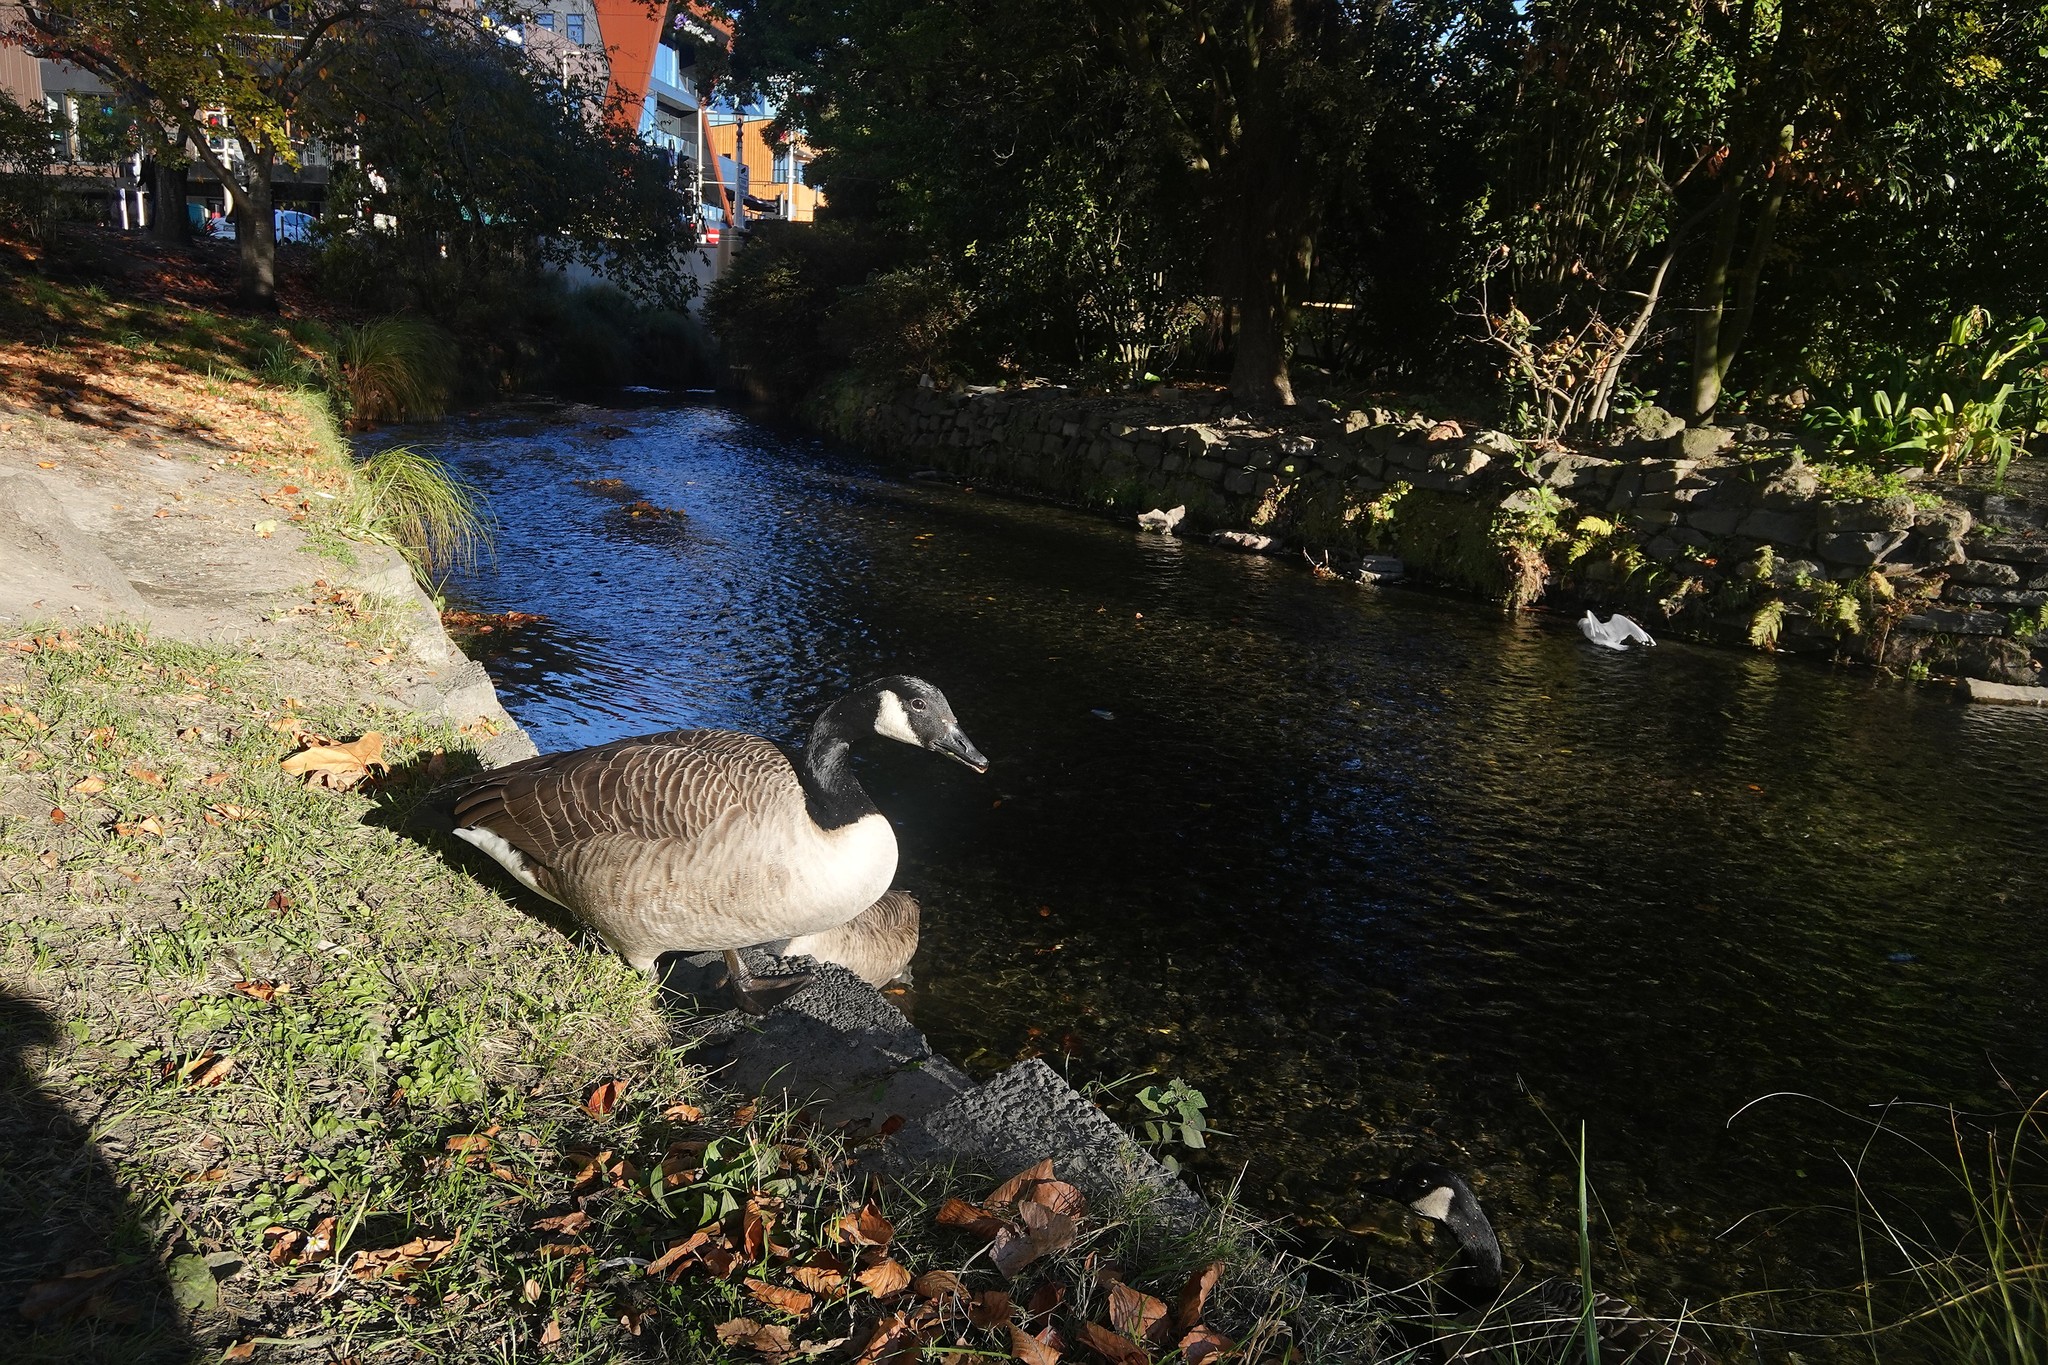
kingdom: Animalia
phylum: Chordata
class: Aves
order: Anseriformes
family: Anatidae
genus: Branta
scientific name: Branta canadensis
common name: Canada goose
